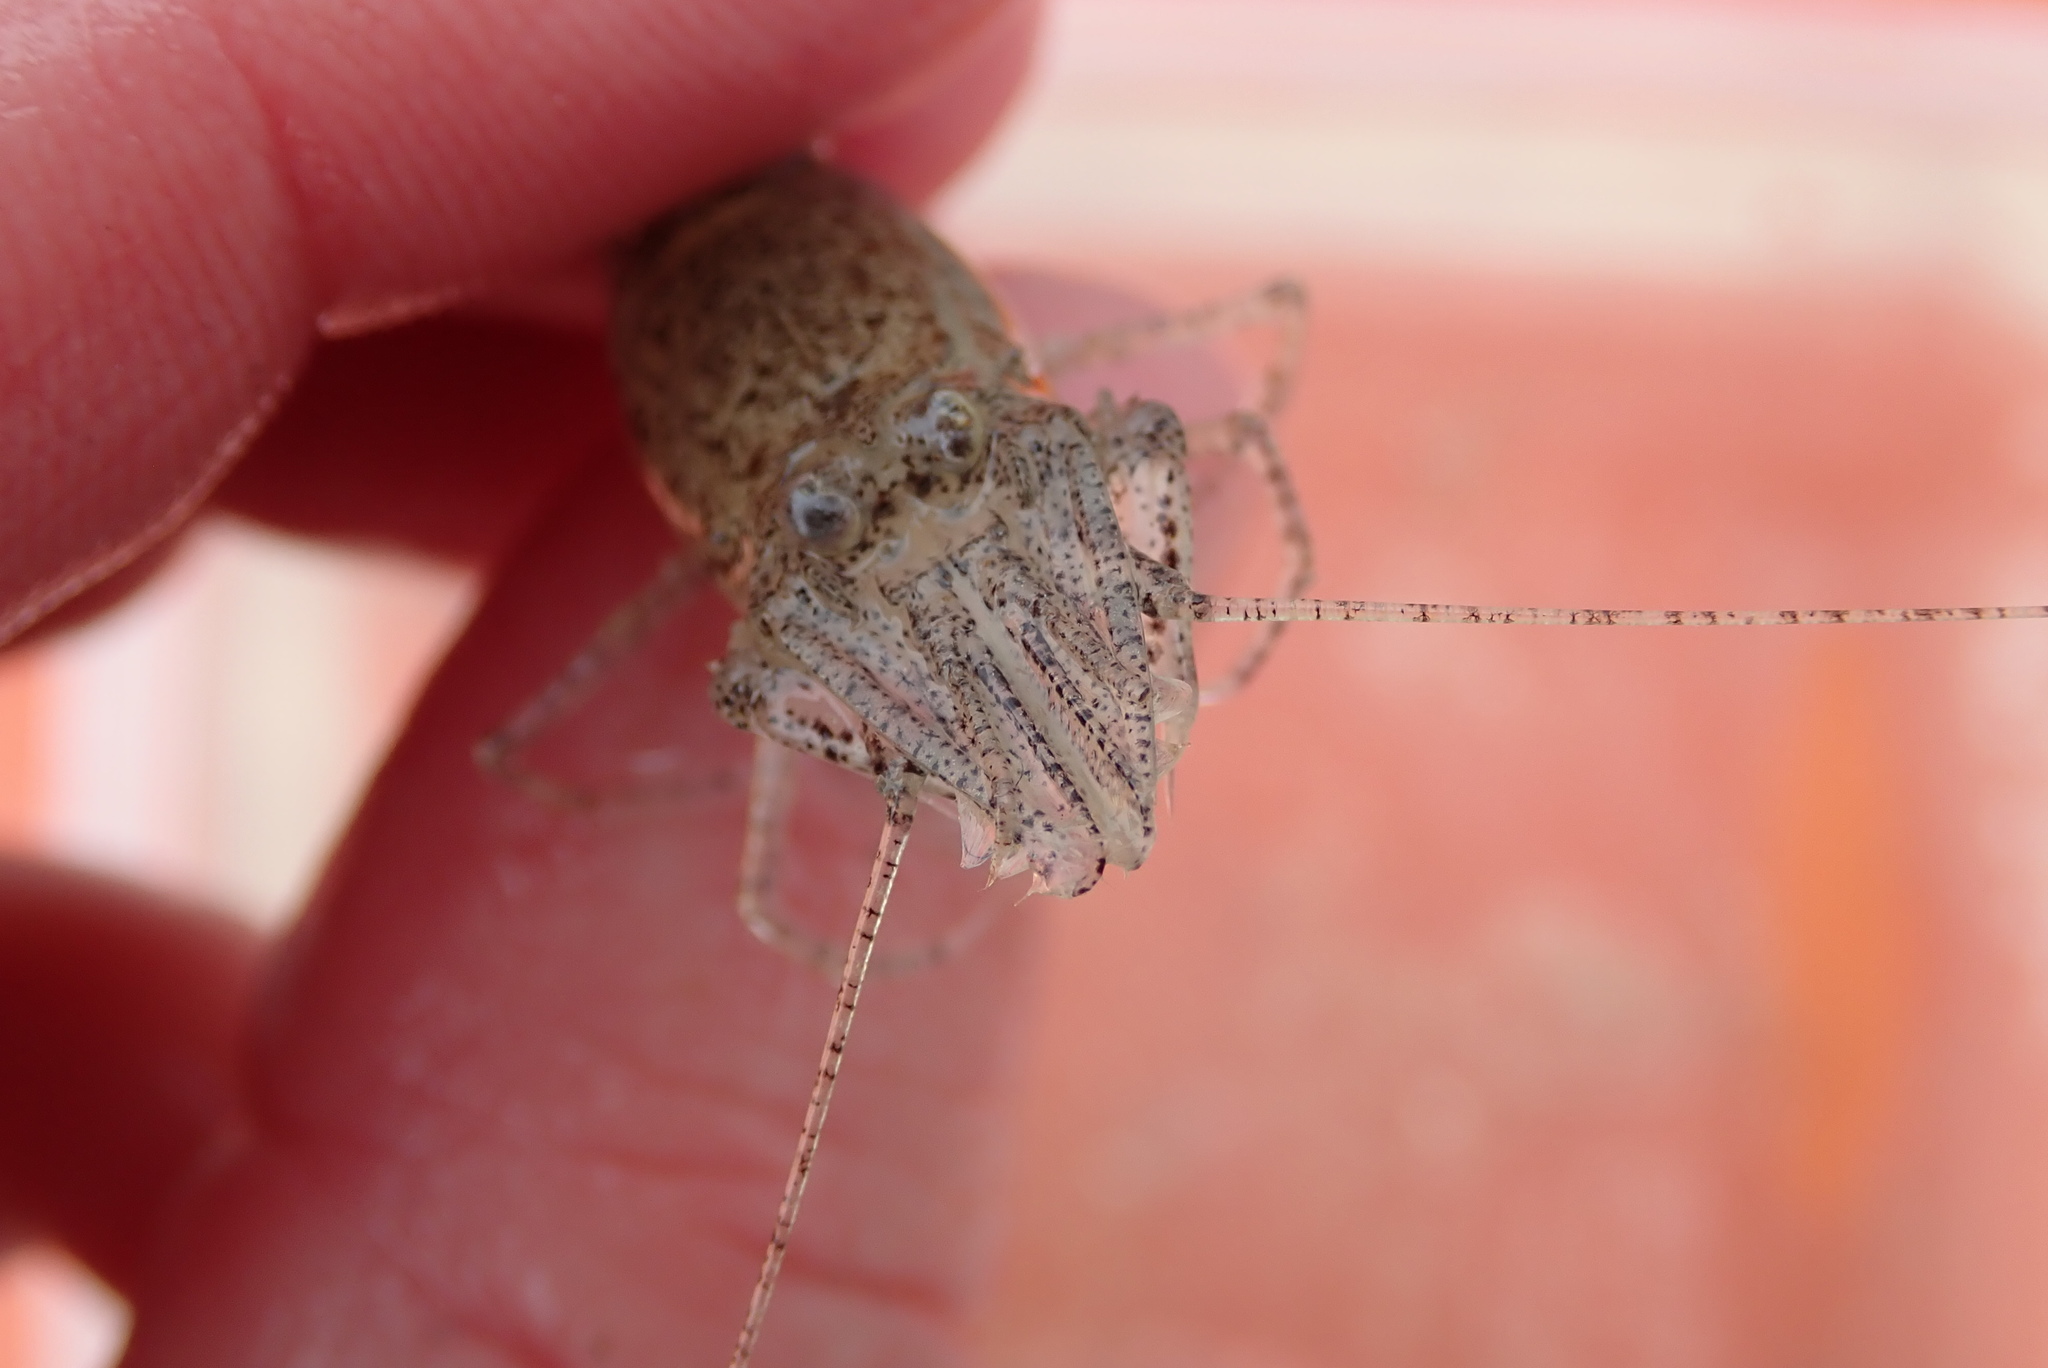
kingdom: Animalia
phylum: Arthropoda
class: Malacostraca
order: Decapoda
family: Crangonidae
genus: Crangon
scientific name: Crangon septemspinosa
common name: Bail shrimp
